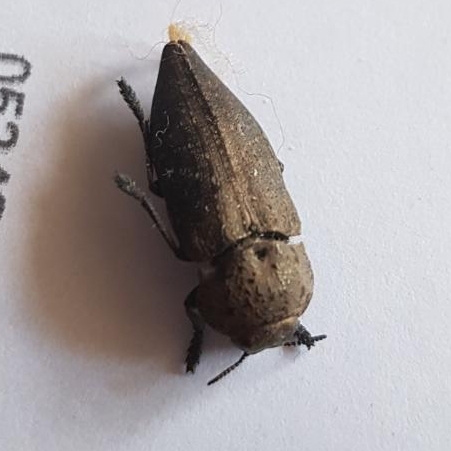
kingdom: Animalia
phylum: Arthropoda
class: Insecta
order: Coleoptera
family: Buprestidae
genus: Capnodis
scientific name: Capnodis tenebricosa
